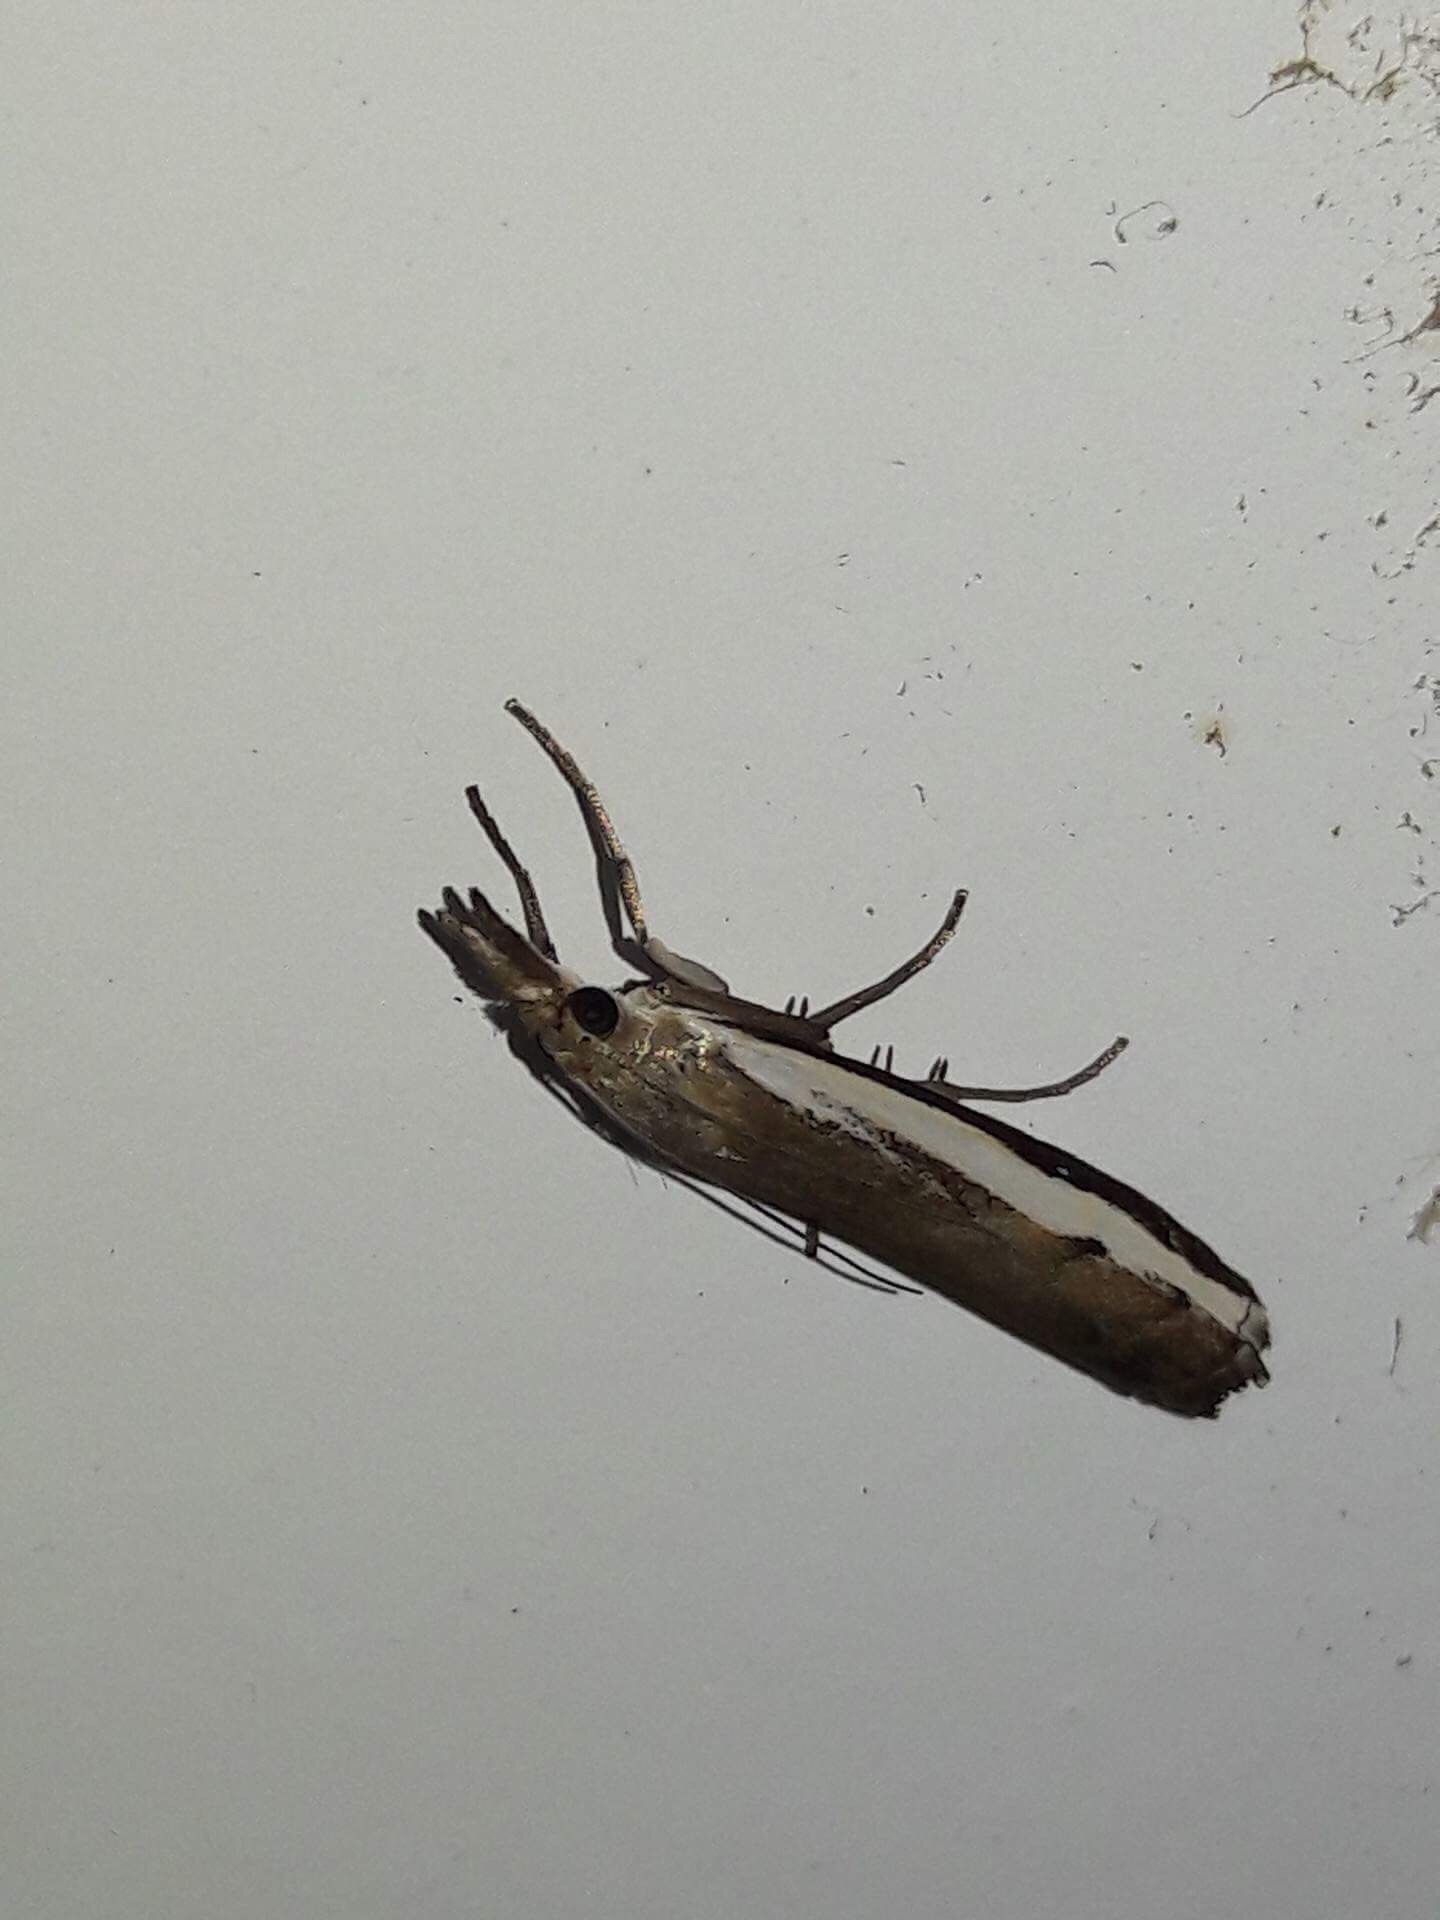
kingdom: Animalia
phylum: Arthropoda
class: Insecta
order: Lepidoptera
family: Crambidae
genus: Orocrambus
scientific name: Orocrambus flexuosellus
